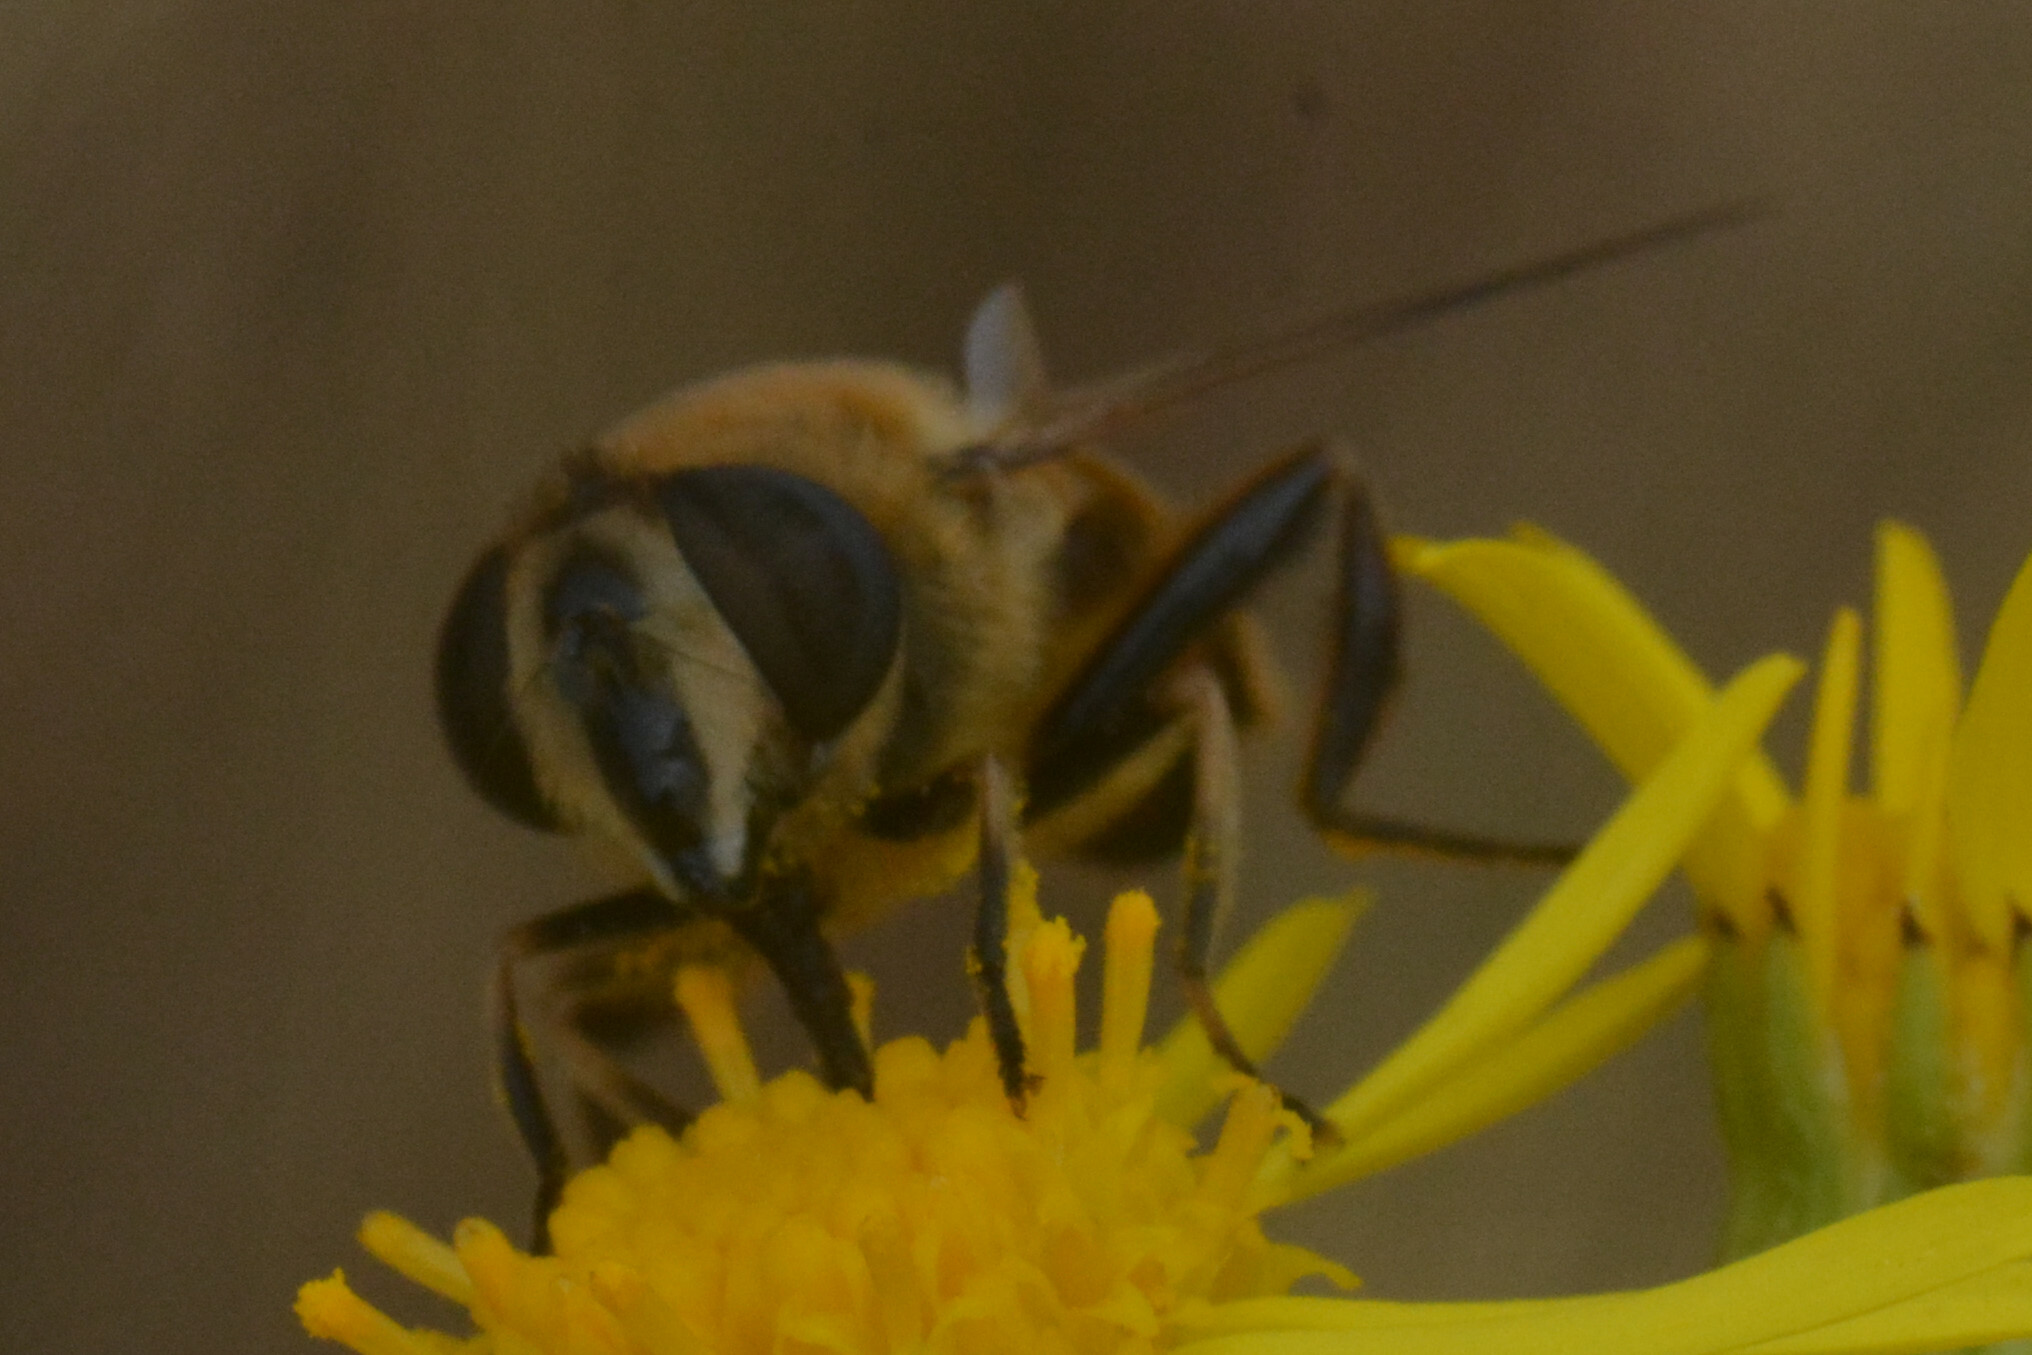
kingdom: Animalia
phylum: Arthropoda
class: Insecta
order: Diptera
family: Syrphidae
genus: Eristalis
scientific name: Eristalis tenax
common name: Drone fly
